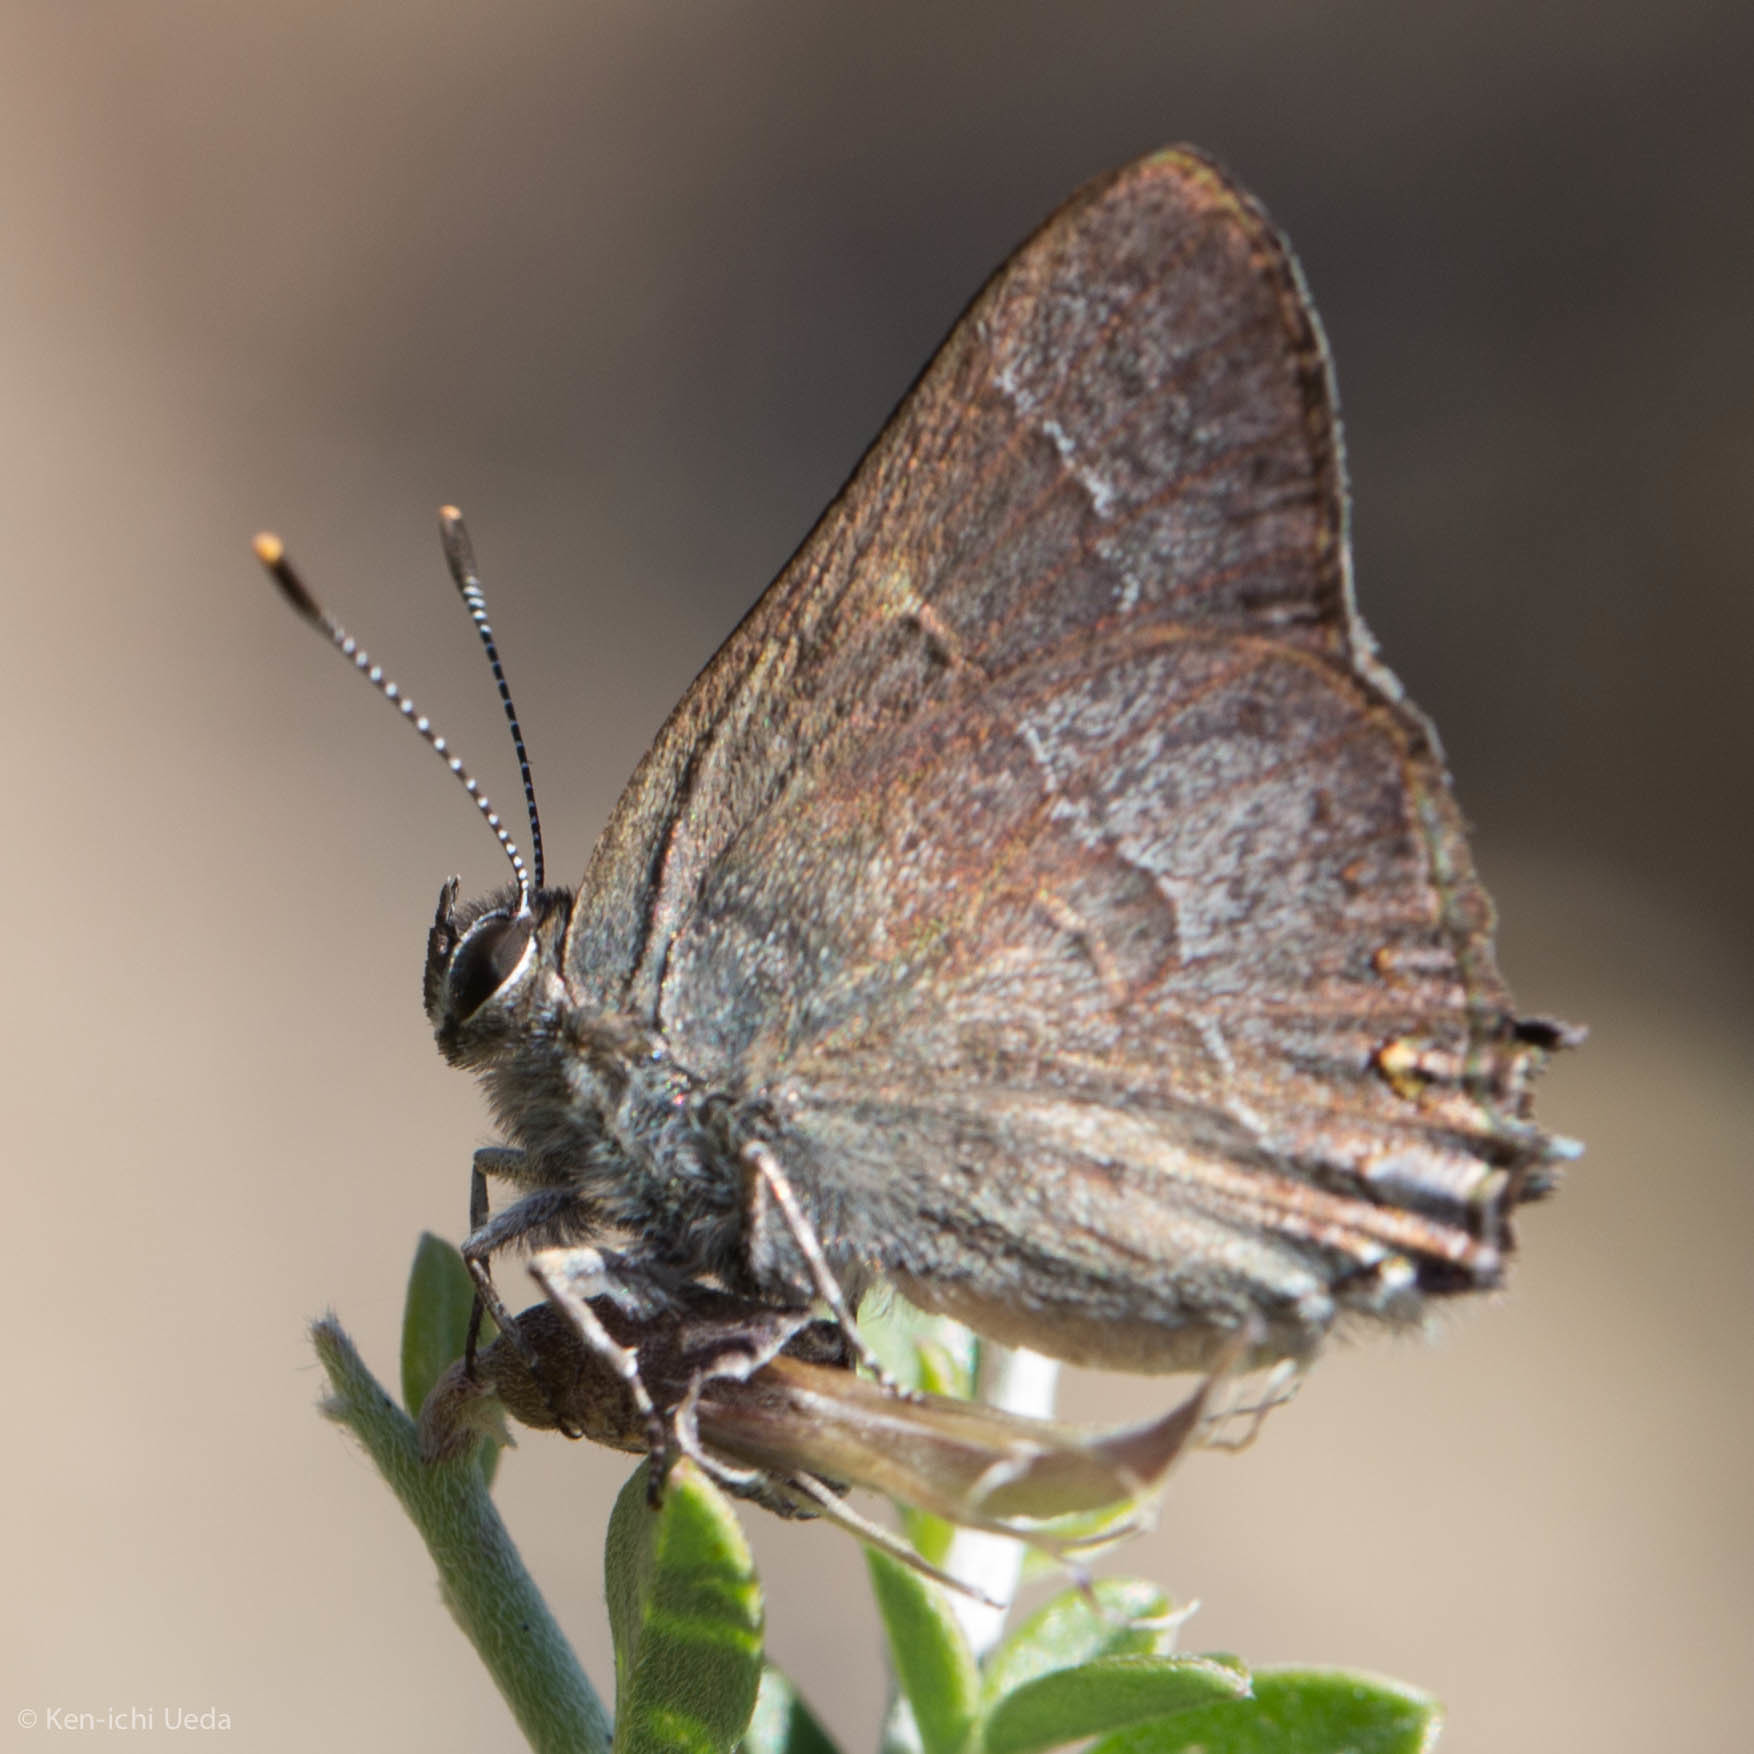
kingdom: Animalia
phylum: Arthropoda
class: Insecta
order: Lepidoptera
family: Lycaenidae
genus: Thecla
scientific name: Thecla tetra
